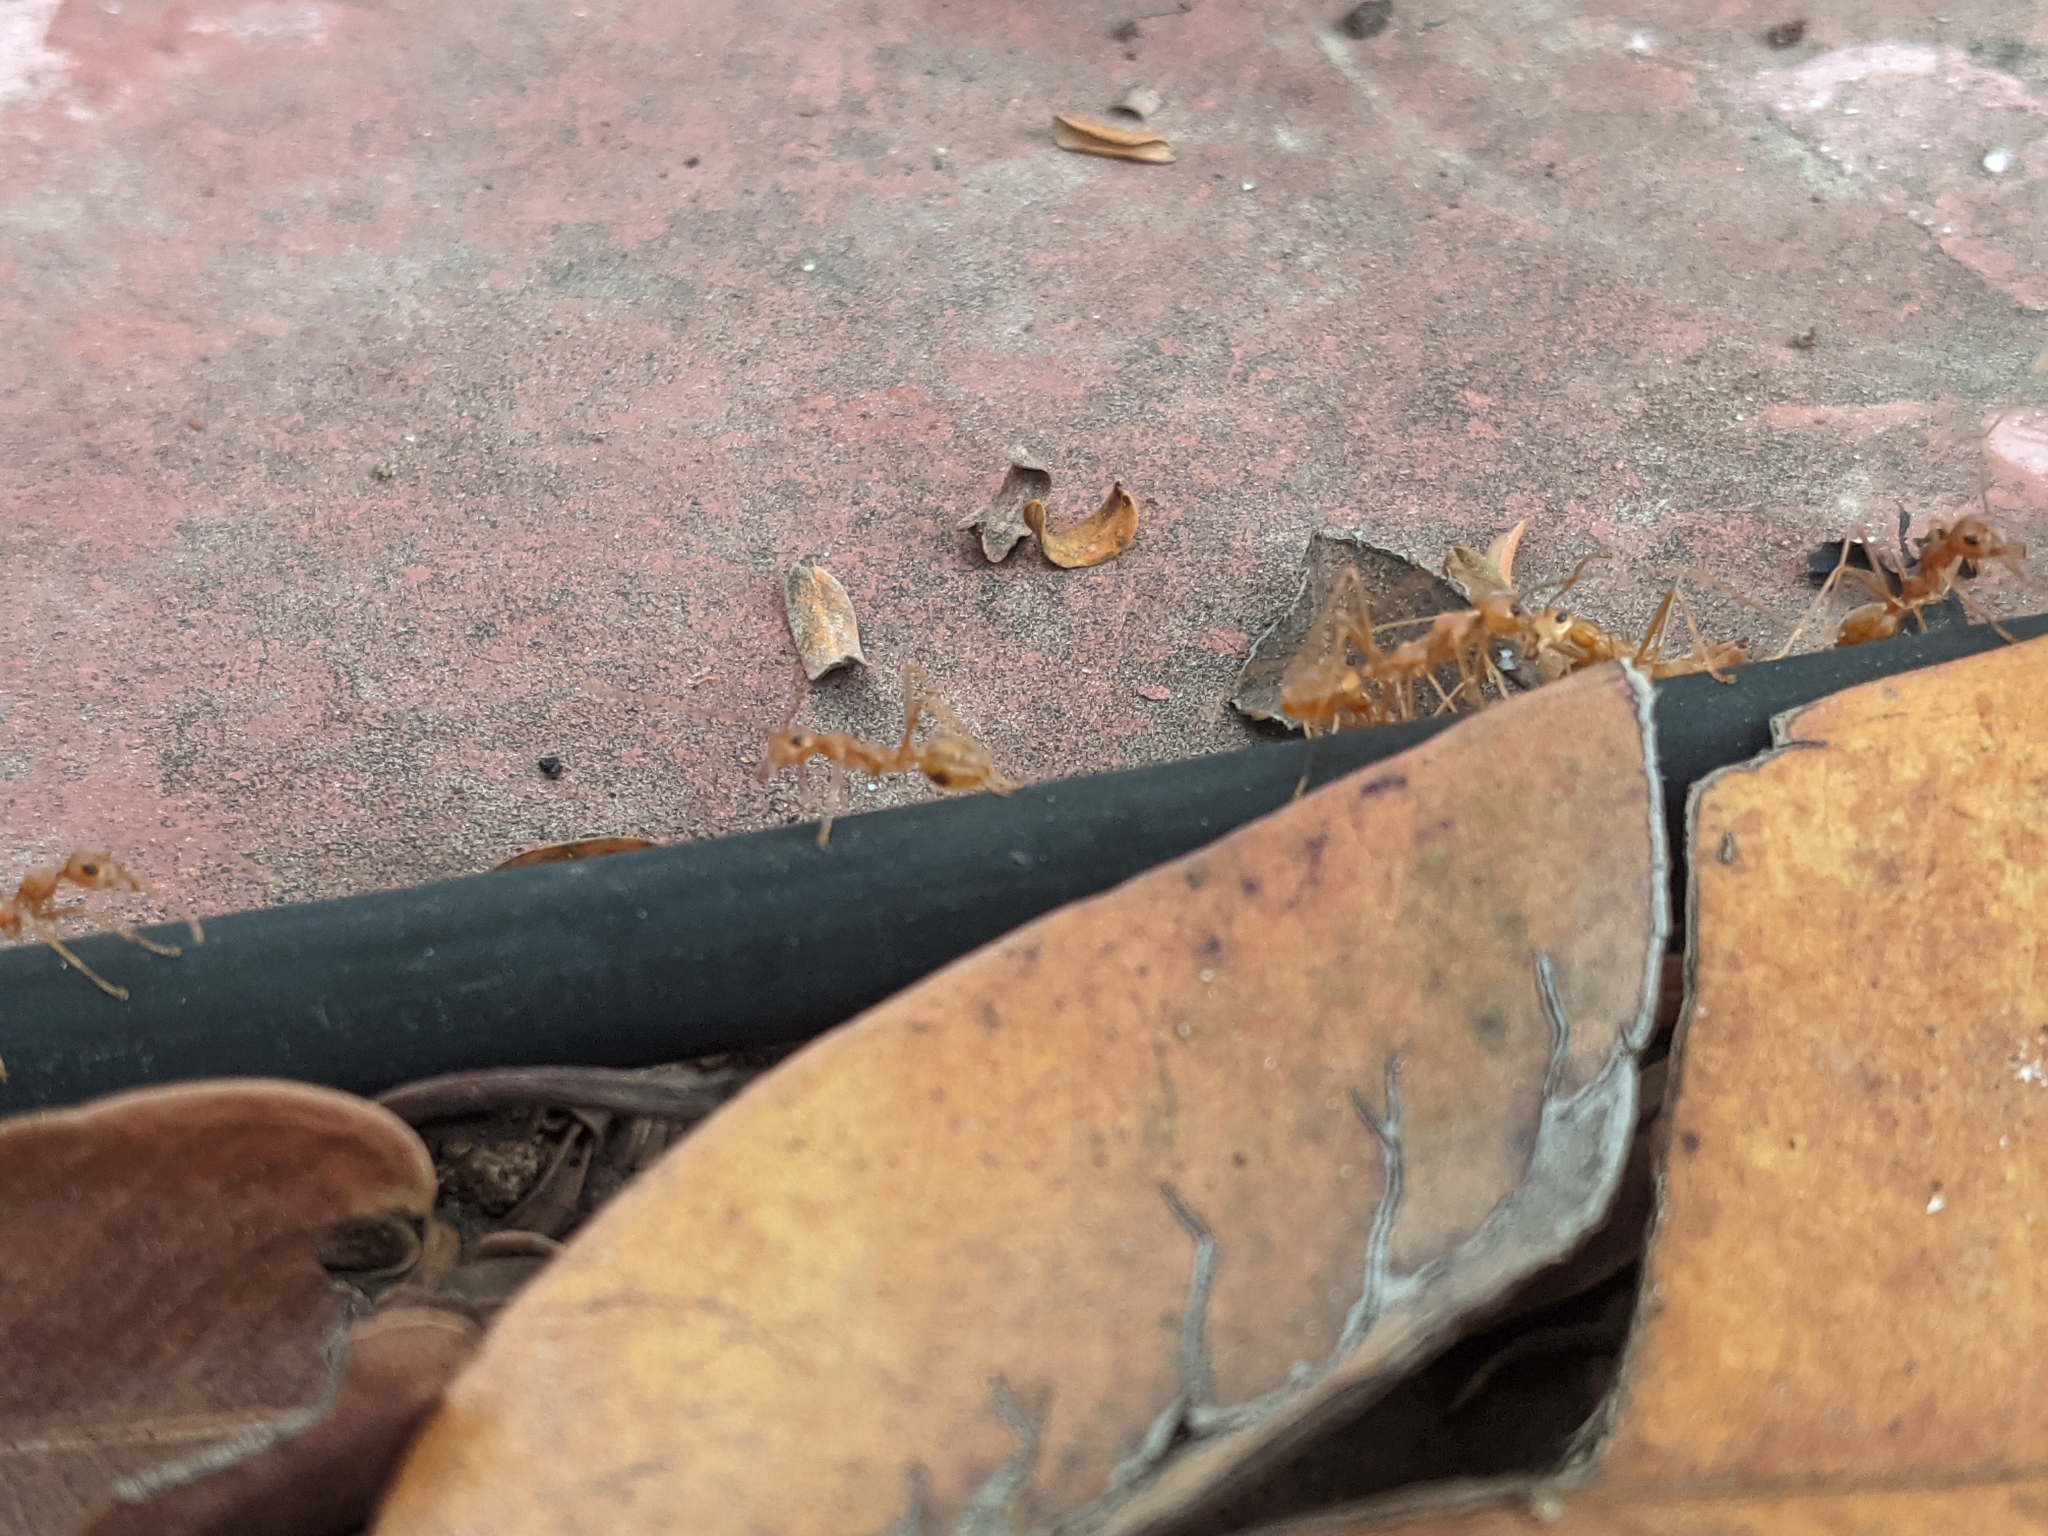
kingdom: Animalia
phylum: Arthropoda
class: Insecta
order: Hymenoptera
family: Formicidae
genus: Oecophylla
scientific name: Oecophylla smaragdina
